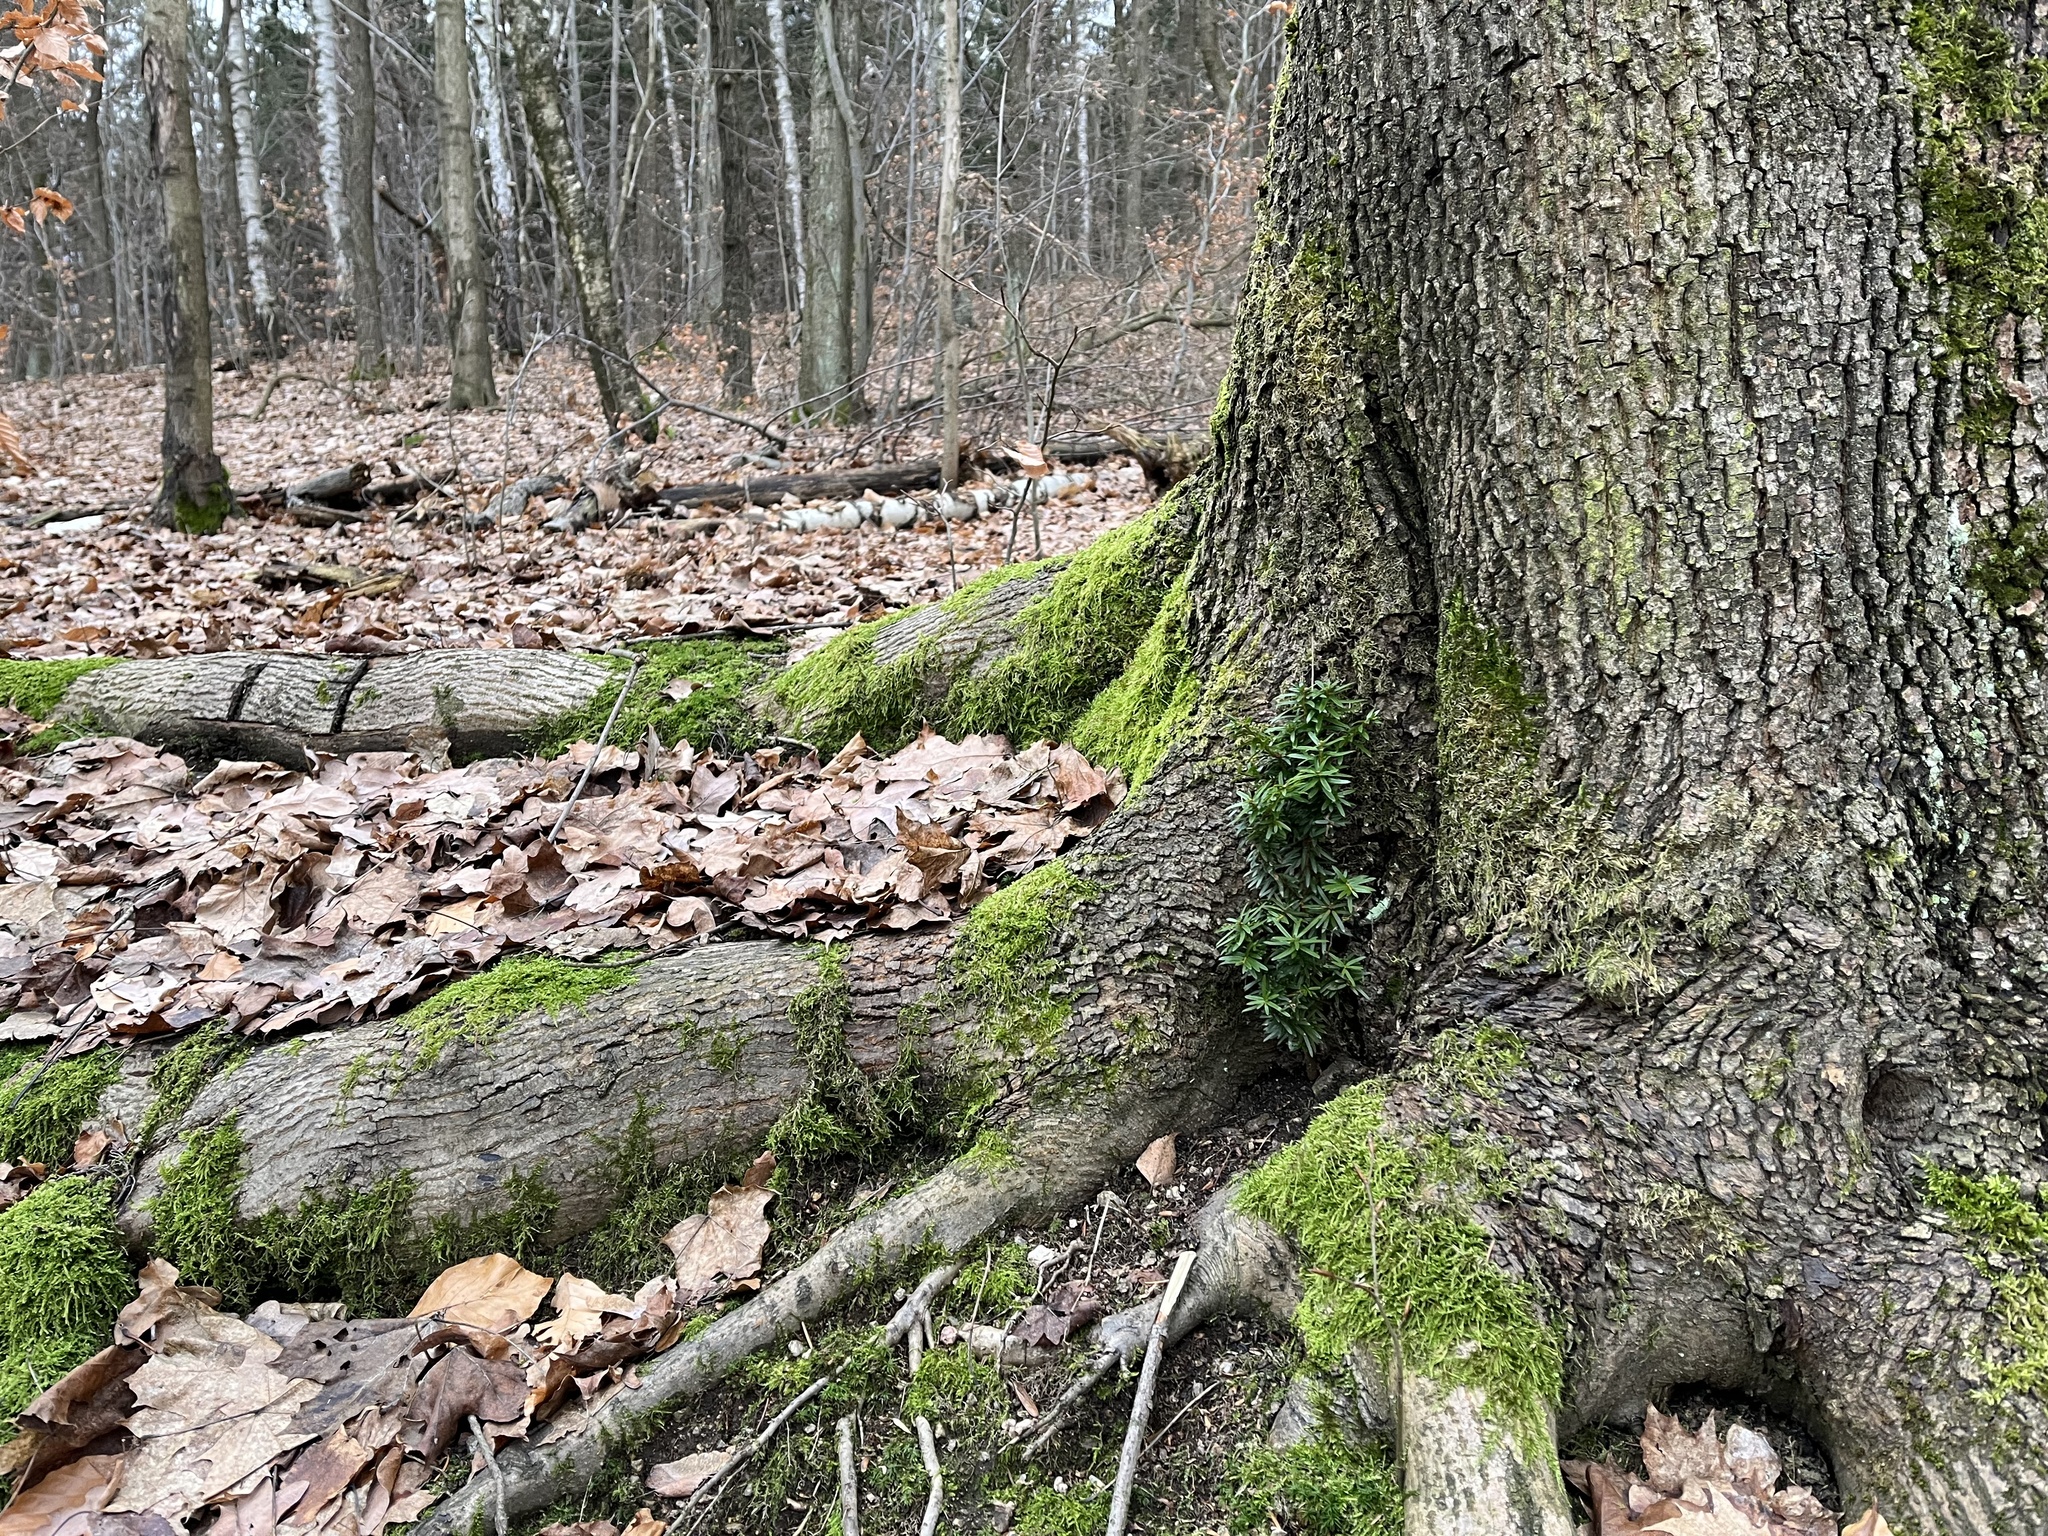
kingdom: Plantae
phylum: Tracheophyta
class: Pinopsida
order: Pinales
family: Taxaceae
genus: Taxus
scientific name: Taxus baccata
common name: Yew
